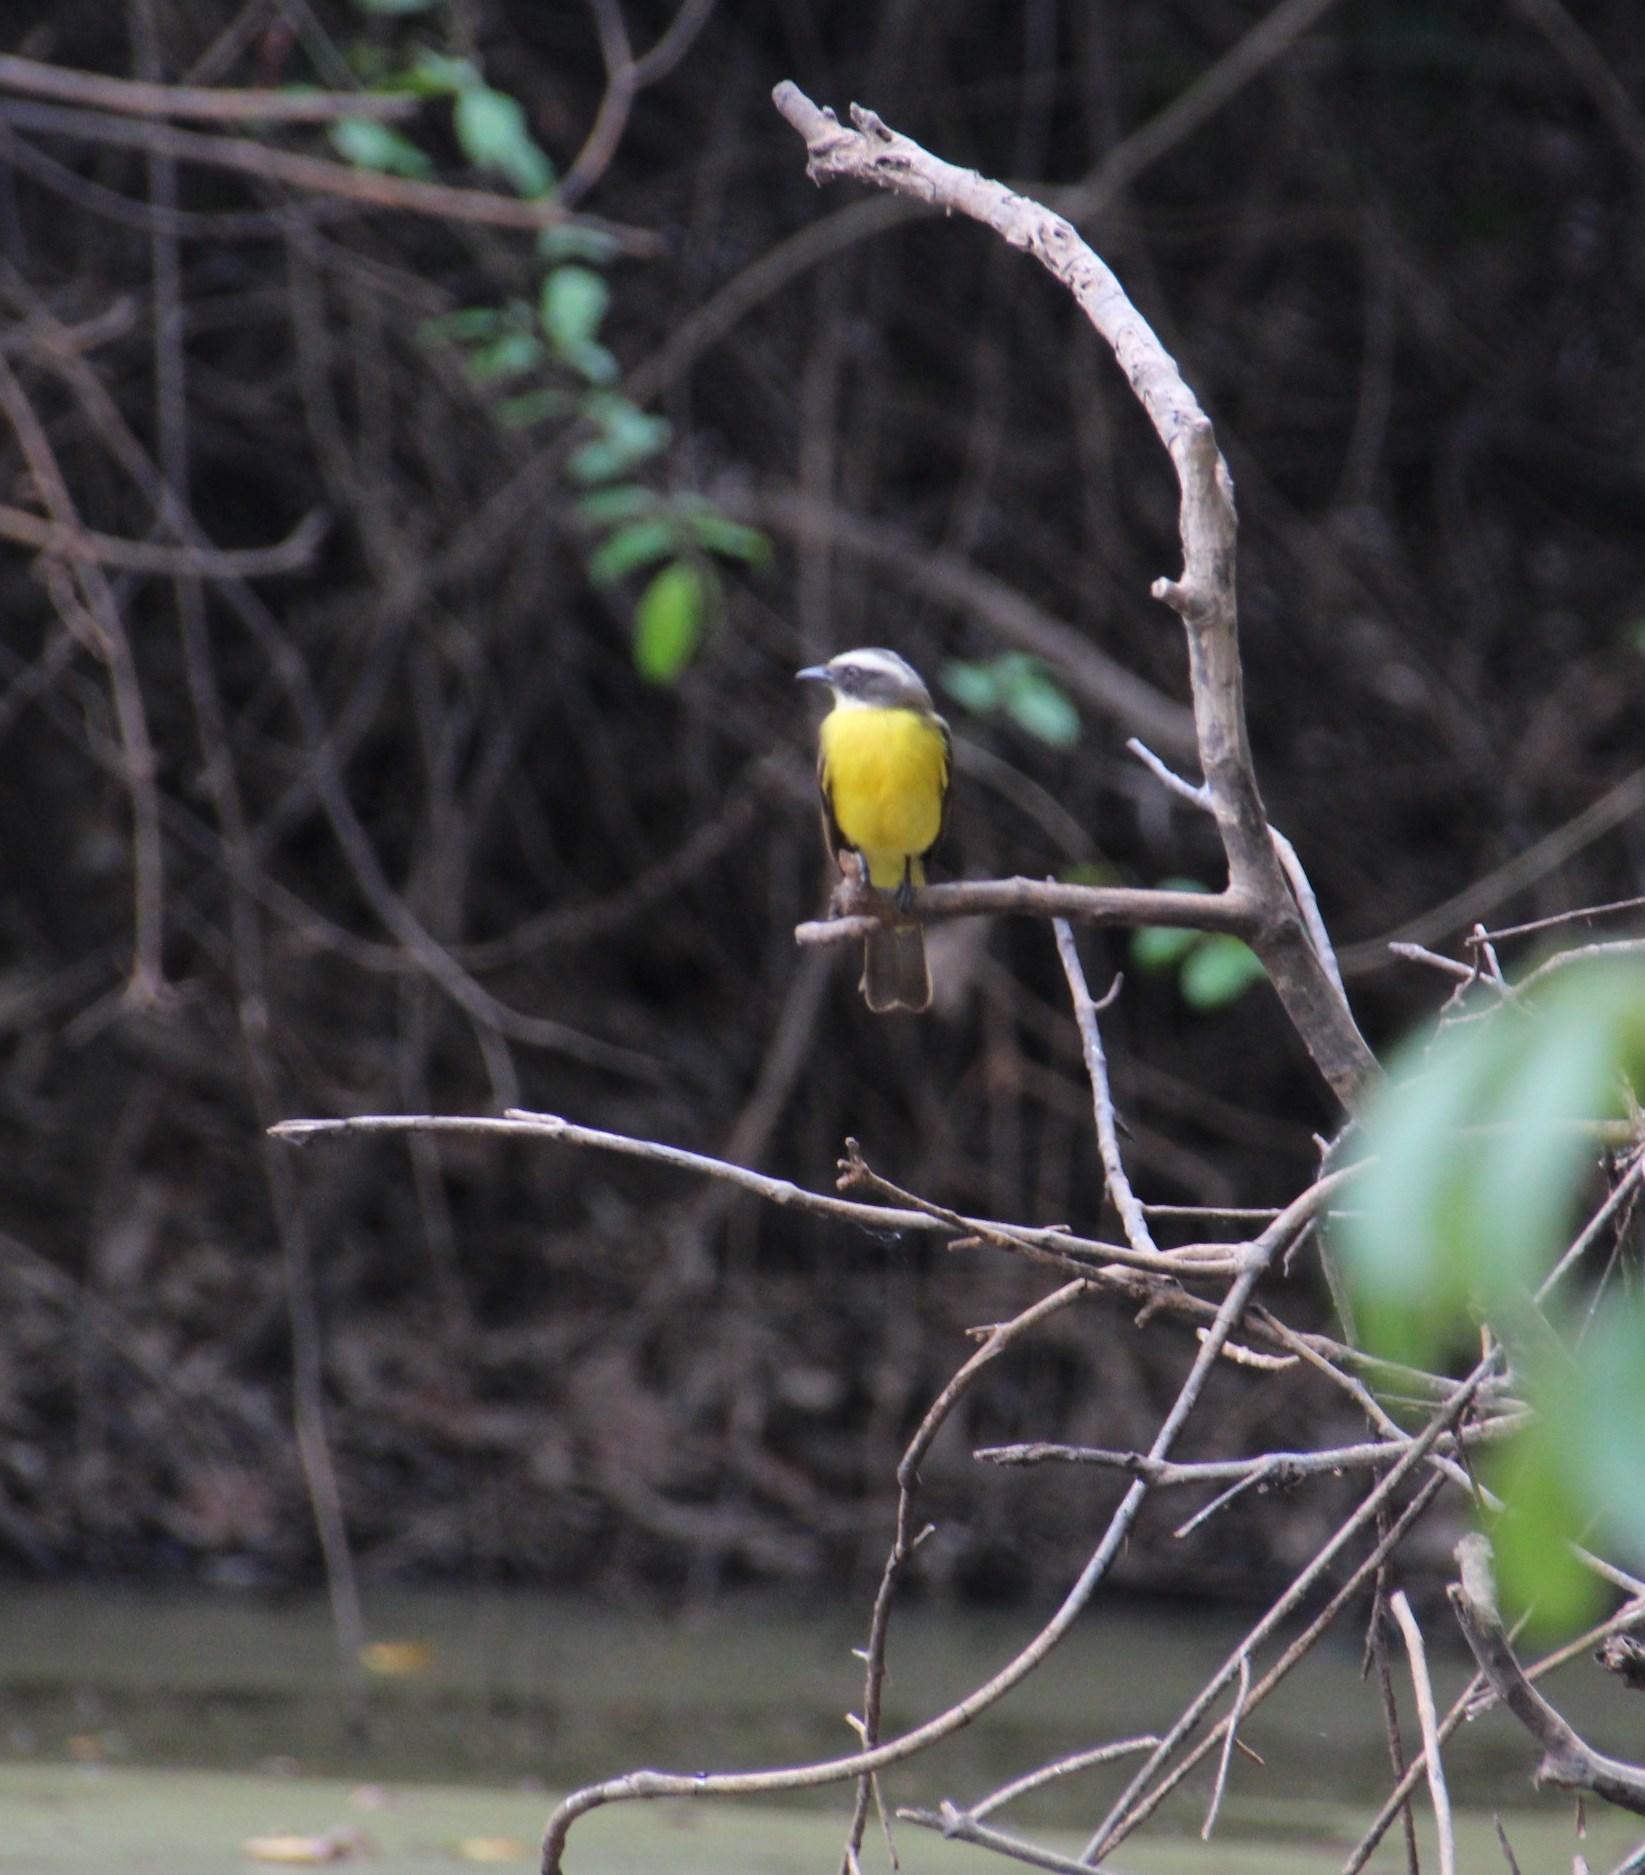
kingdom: Animalia
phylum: Chordata
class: Aves
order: Passeriformes
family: Tyrannidae
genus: Myiozetetes
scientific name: Myiozetetes similis
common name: Social flycatcher
